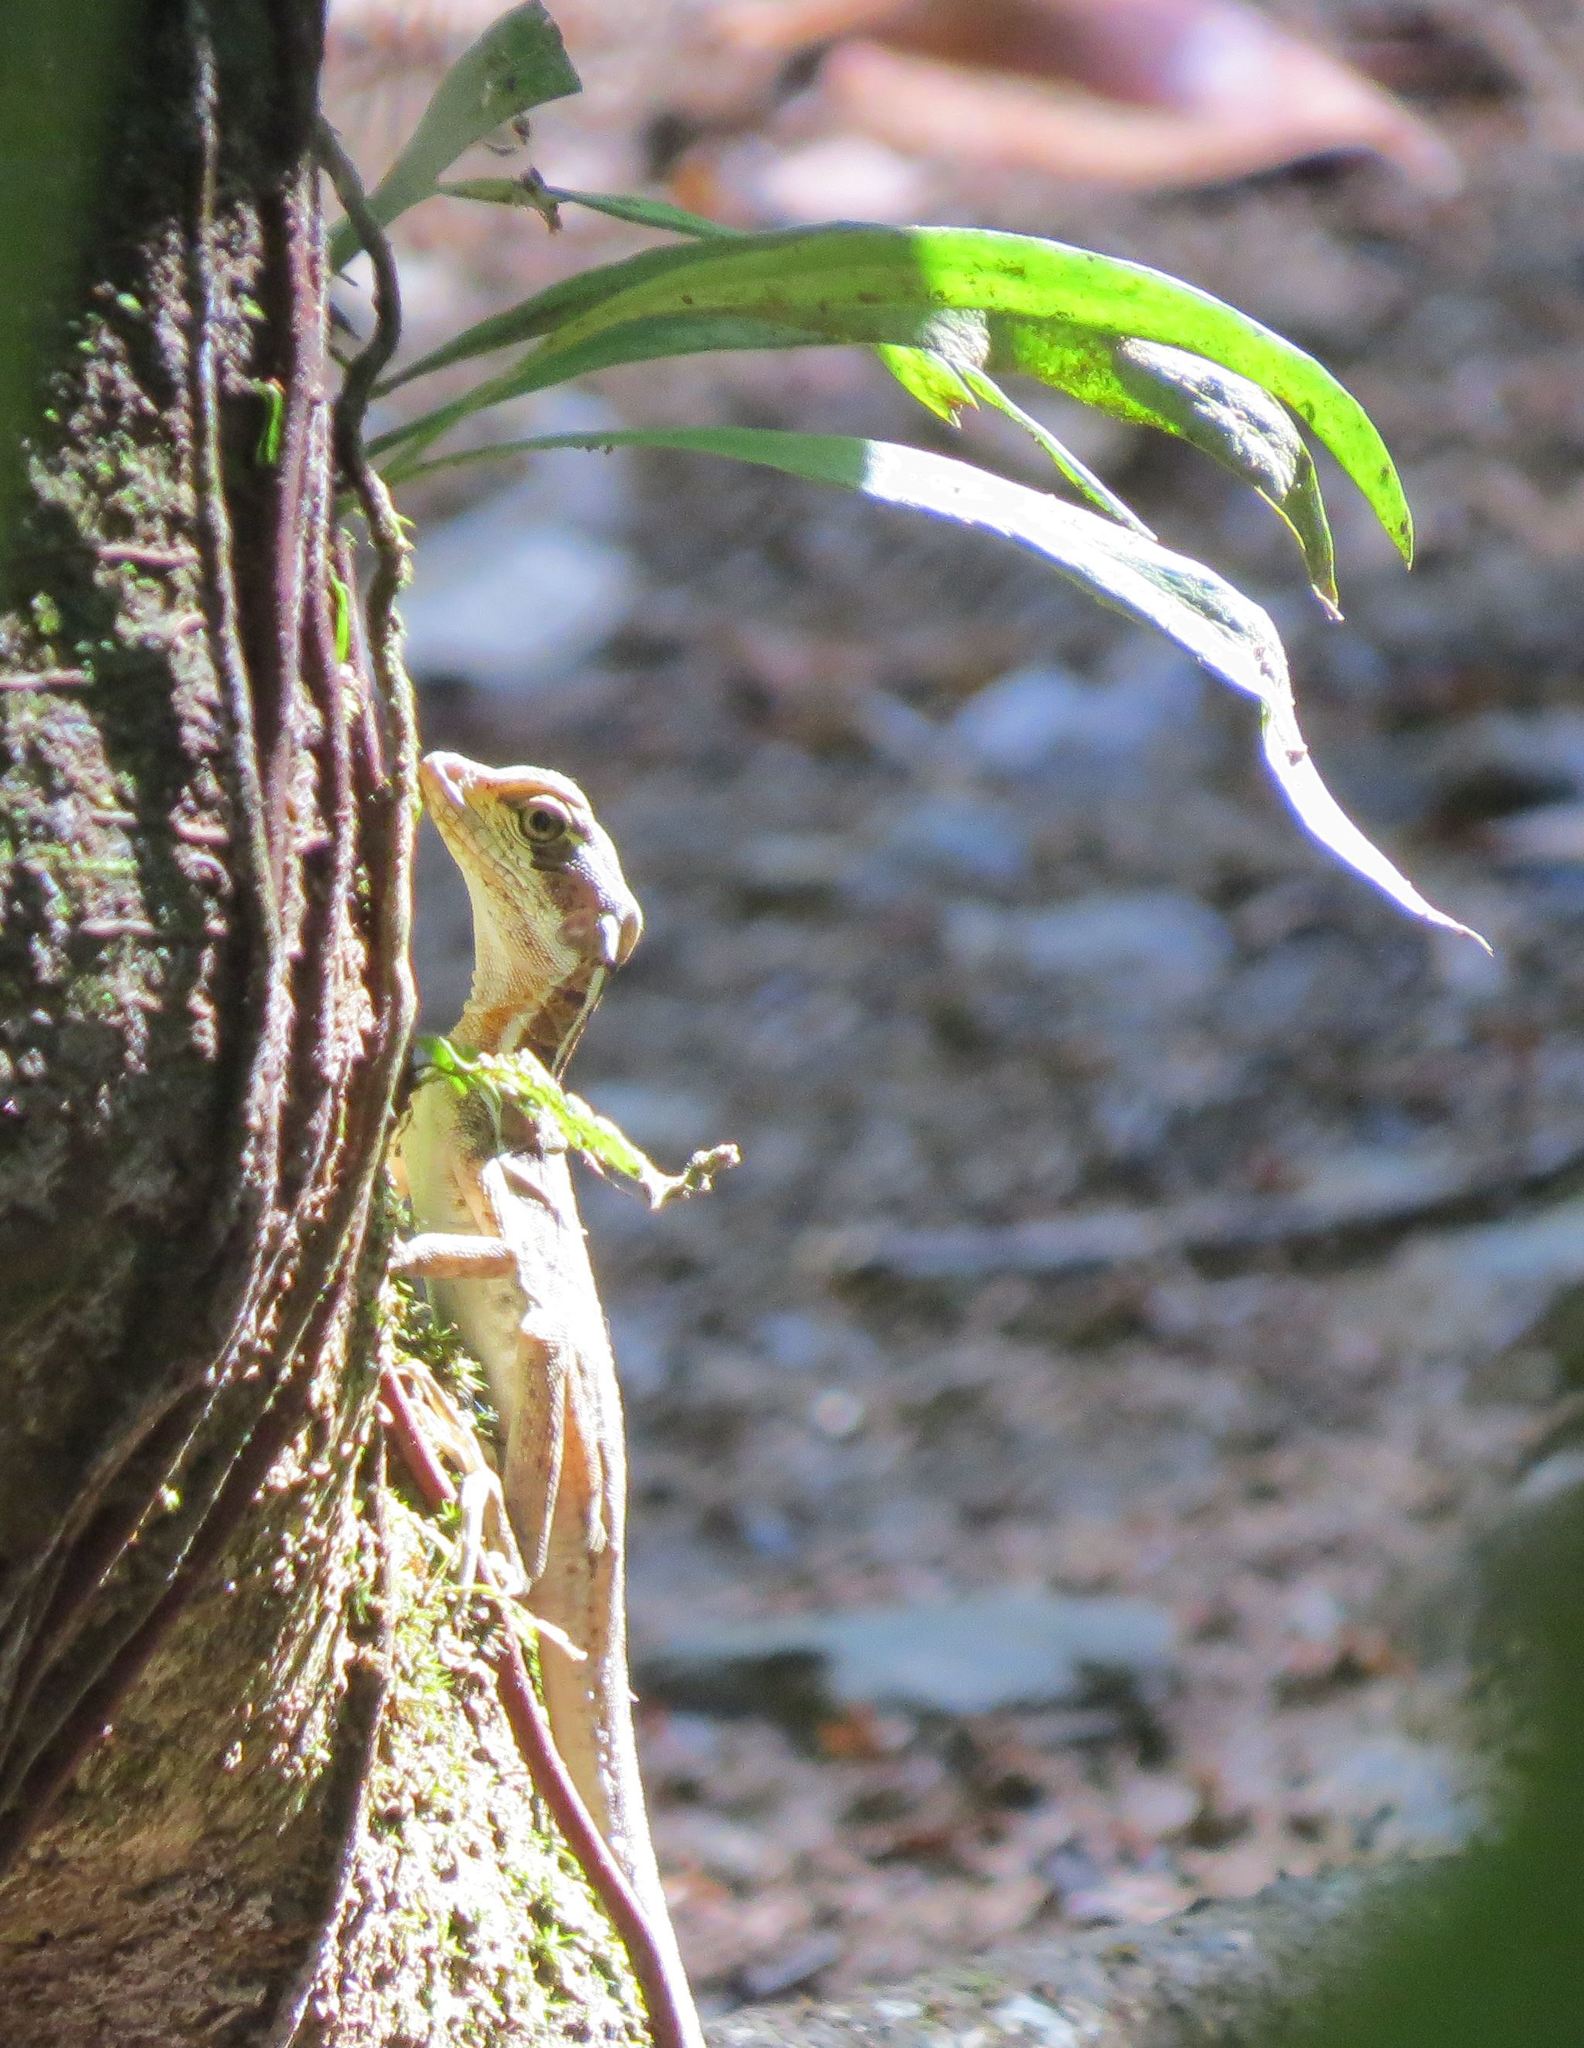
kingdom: Animalia
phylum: Chordata
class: Squamata
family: Corytophanidae
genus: Basiliscus
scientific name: Basiliscus basiliscus
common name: Common basilisk
